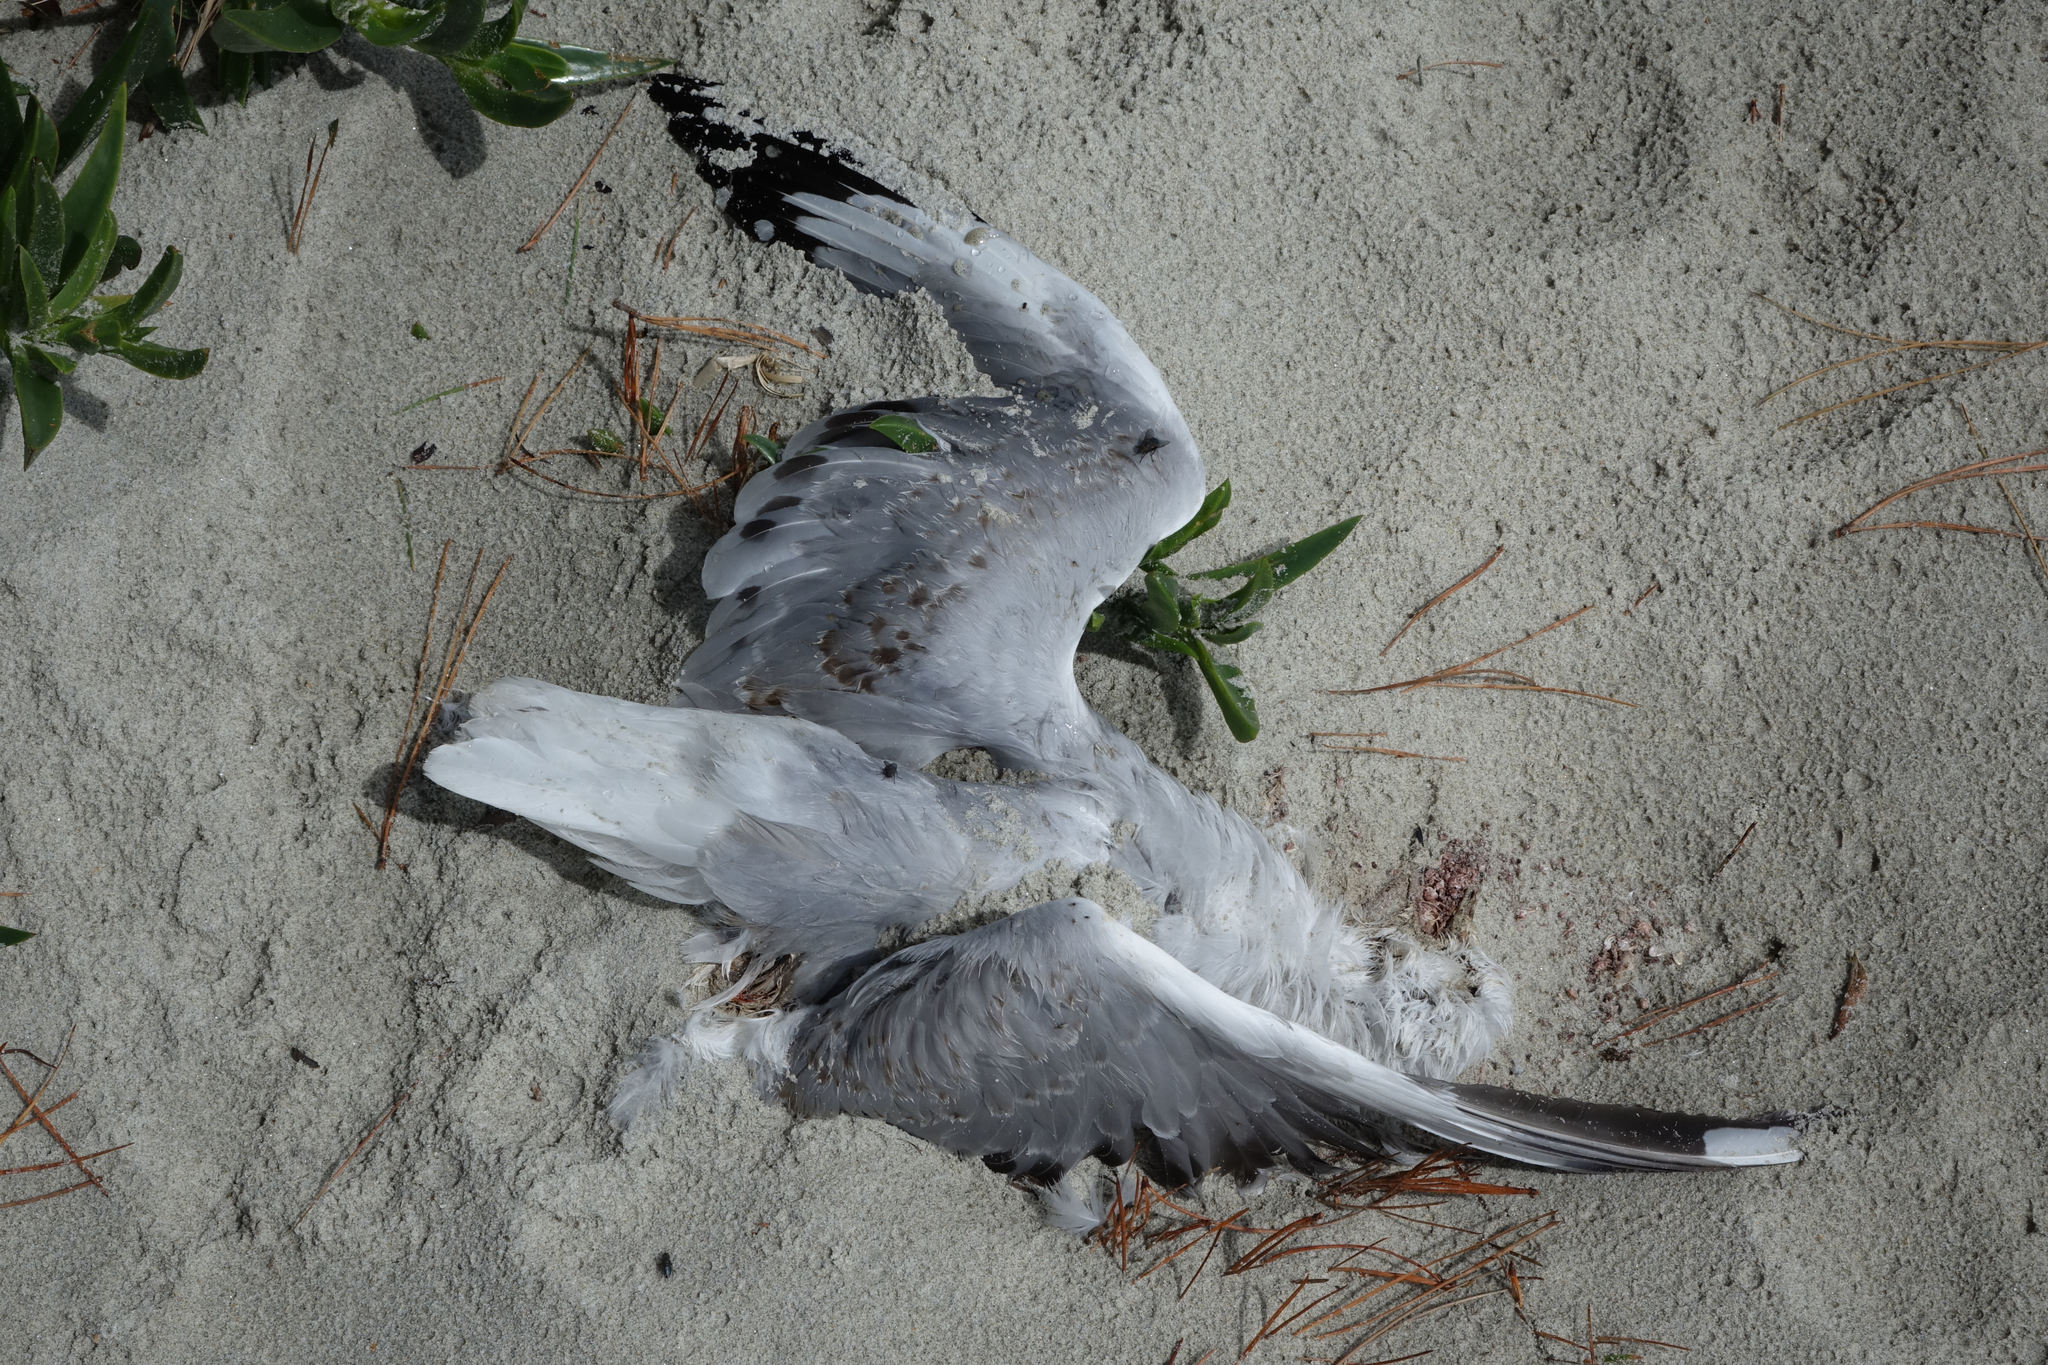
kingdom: Animalia
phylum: Chordata
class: Aves
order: Charadriiformes
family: Laridae
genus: Chroicocephalus
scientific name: Chroicocephalus novaehollandiae
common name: Silver gull
